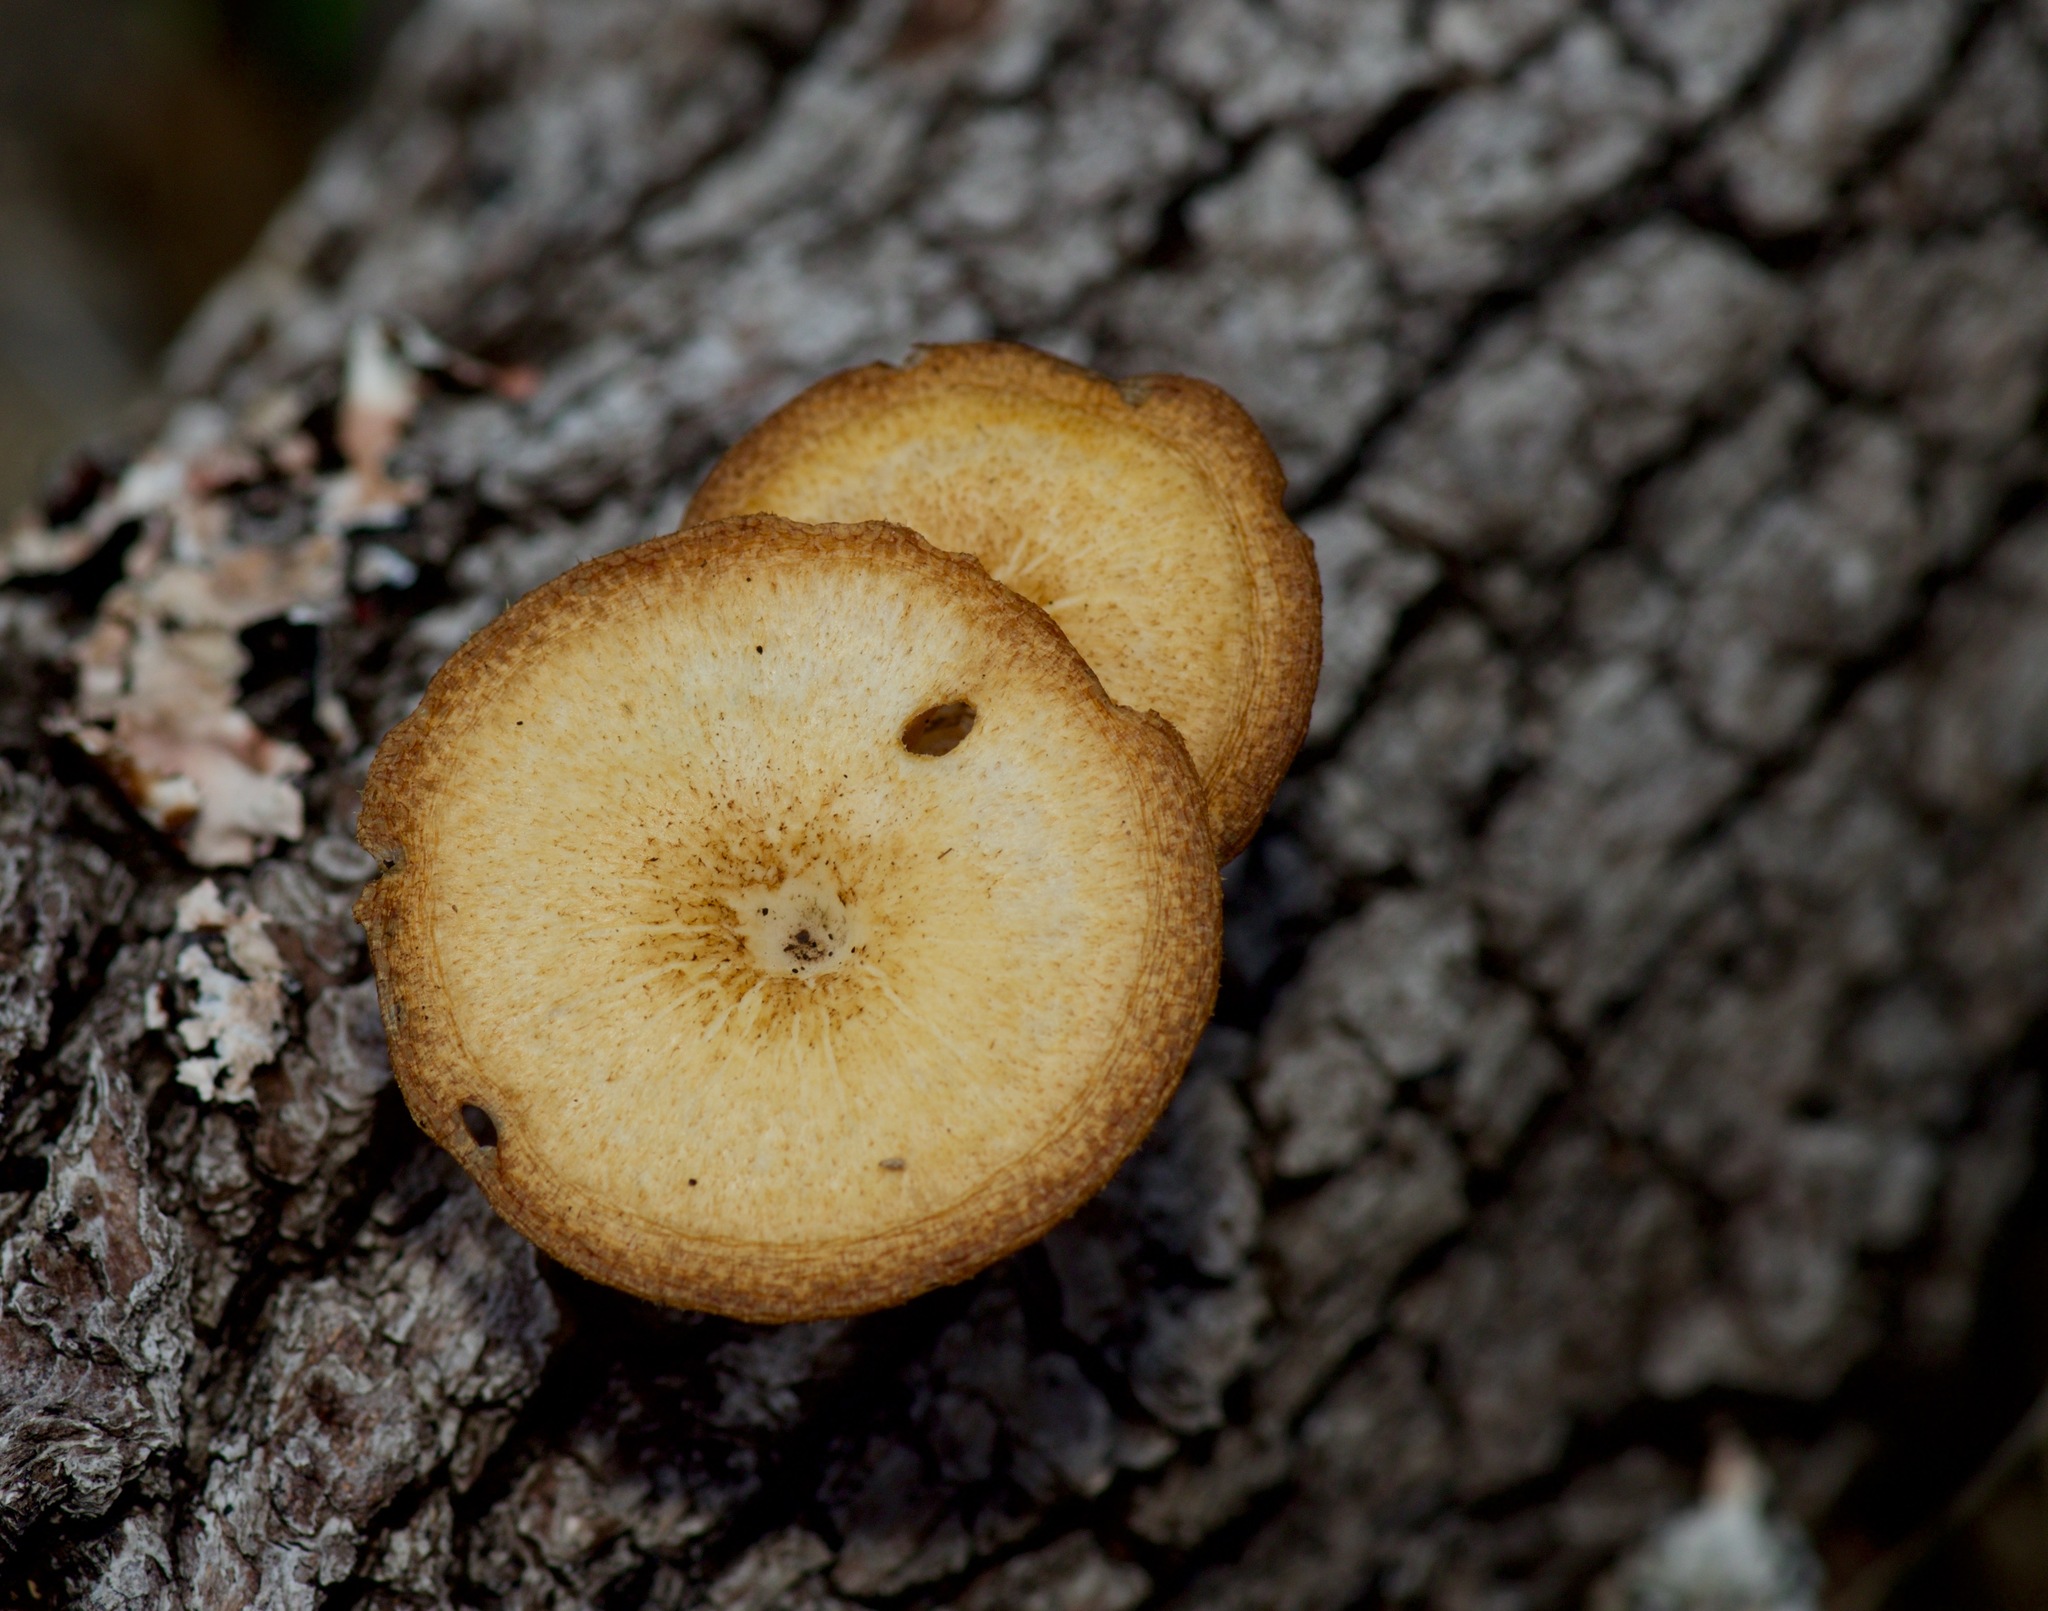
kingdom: Fungi
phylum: Basidiomycota
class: Agaricomycetes
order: Polyporales
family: Polyporaceae
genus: Lentinus
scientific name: Lentinus arcularius
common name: Spring polypore
